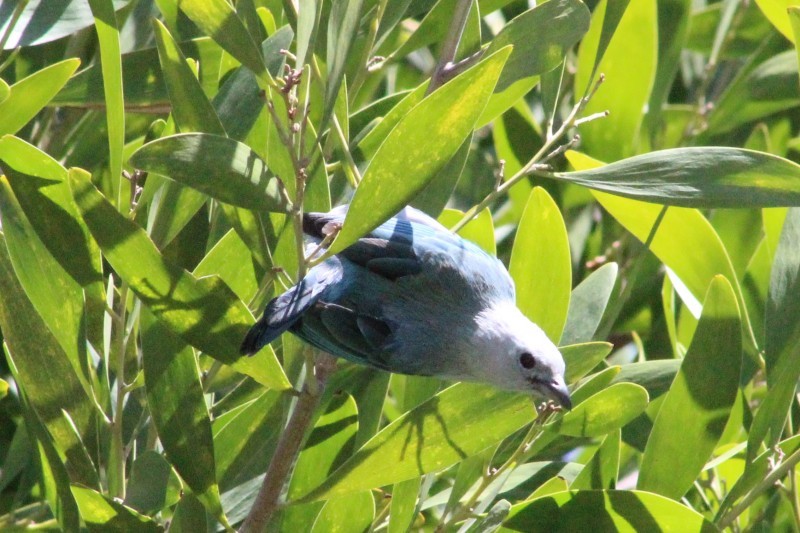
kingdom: Animalia
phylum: Chordata
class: Aves
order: Passeriformes
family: Thraupidae
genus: Thraupis
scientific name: Thraupis episcopus
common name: Blue-grey tanager
